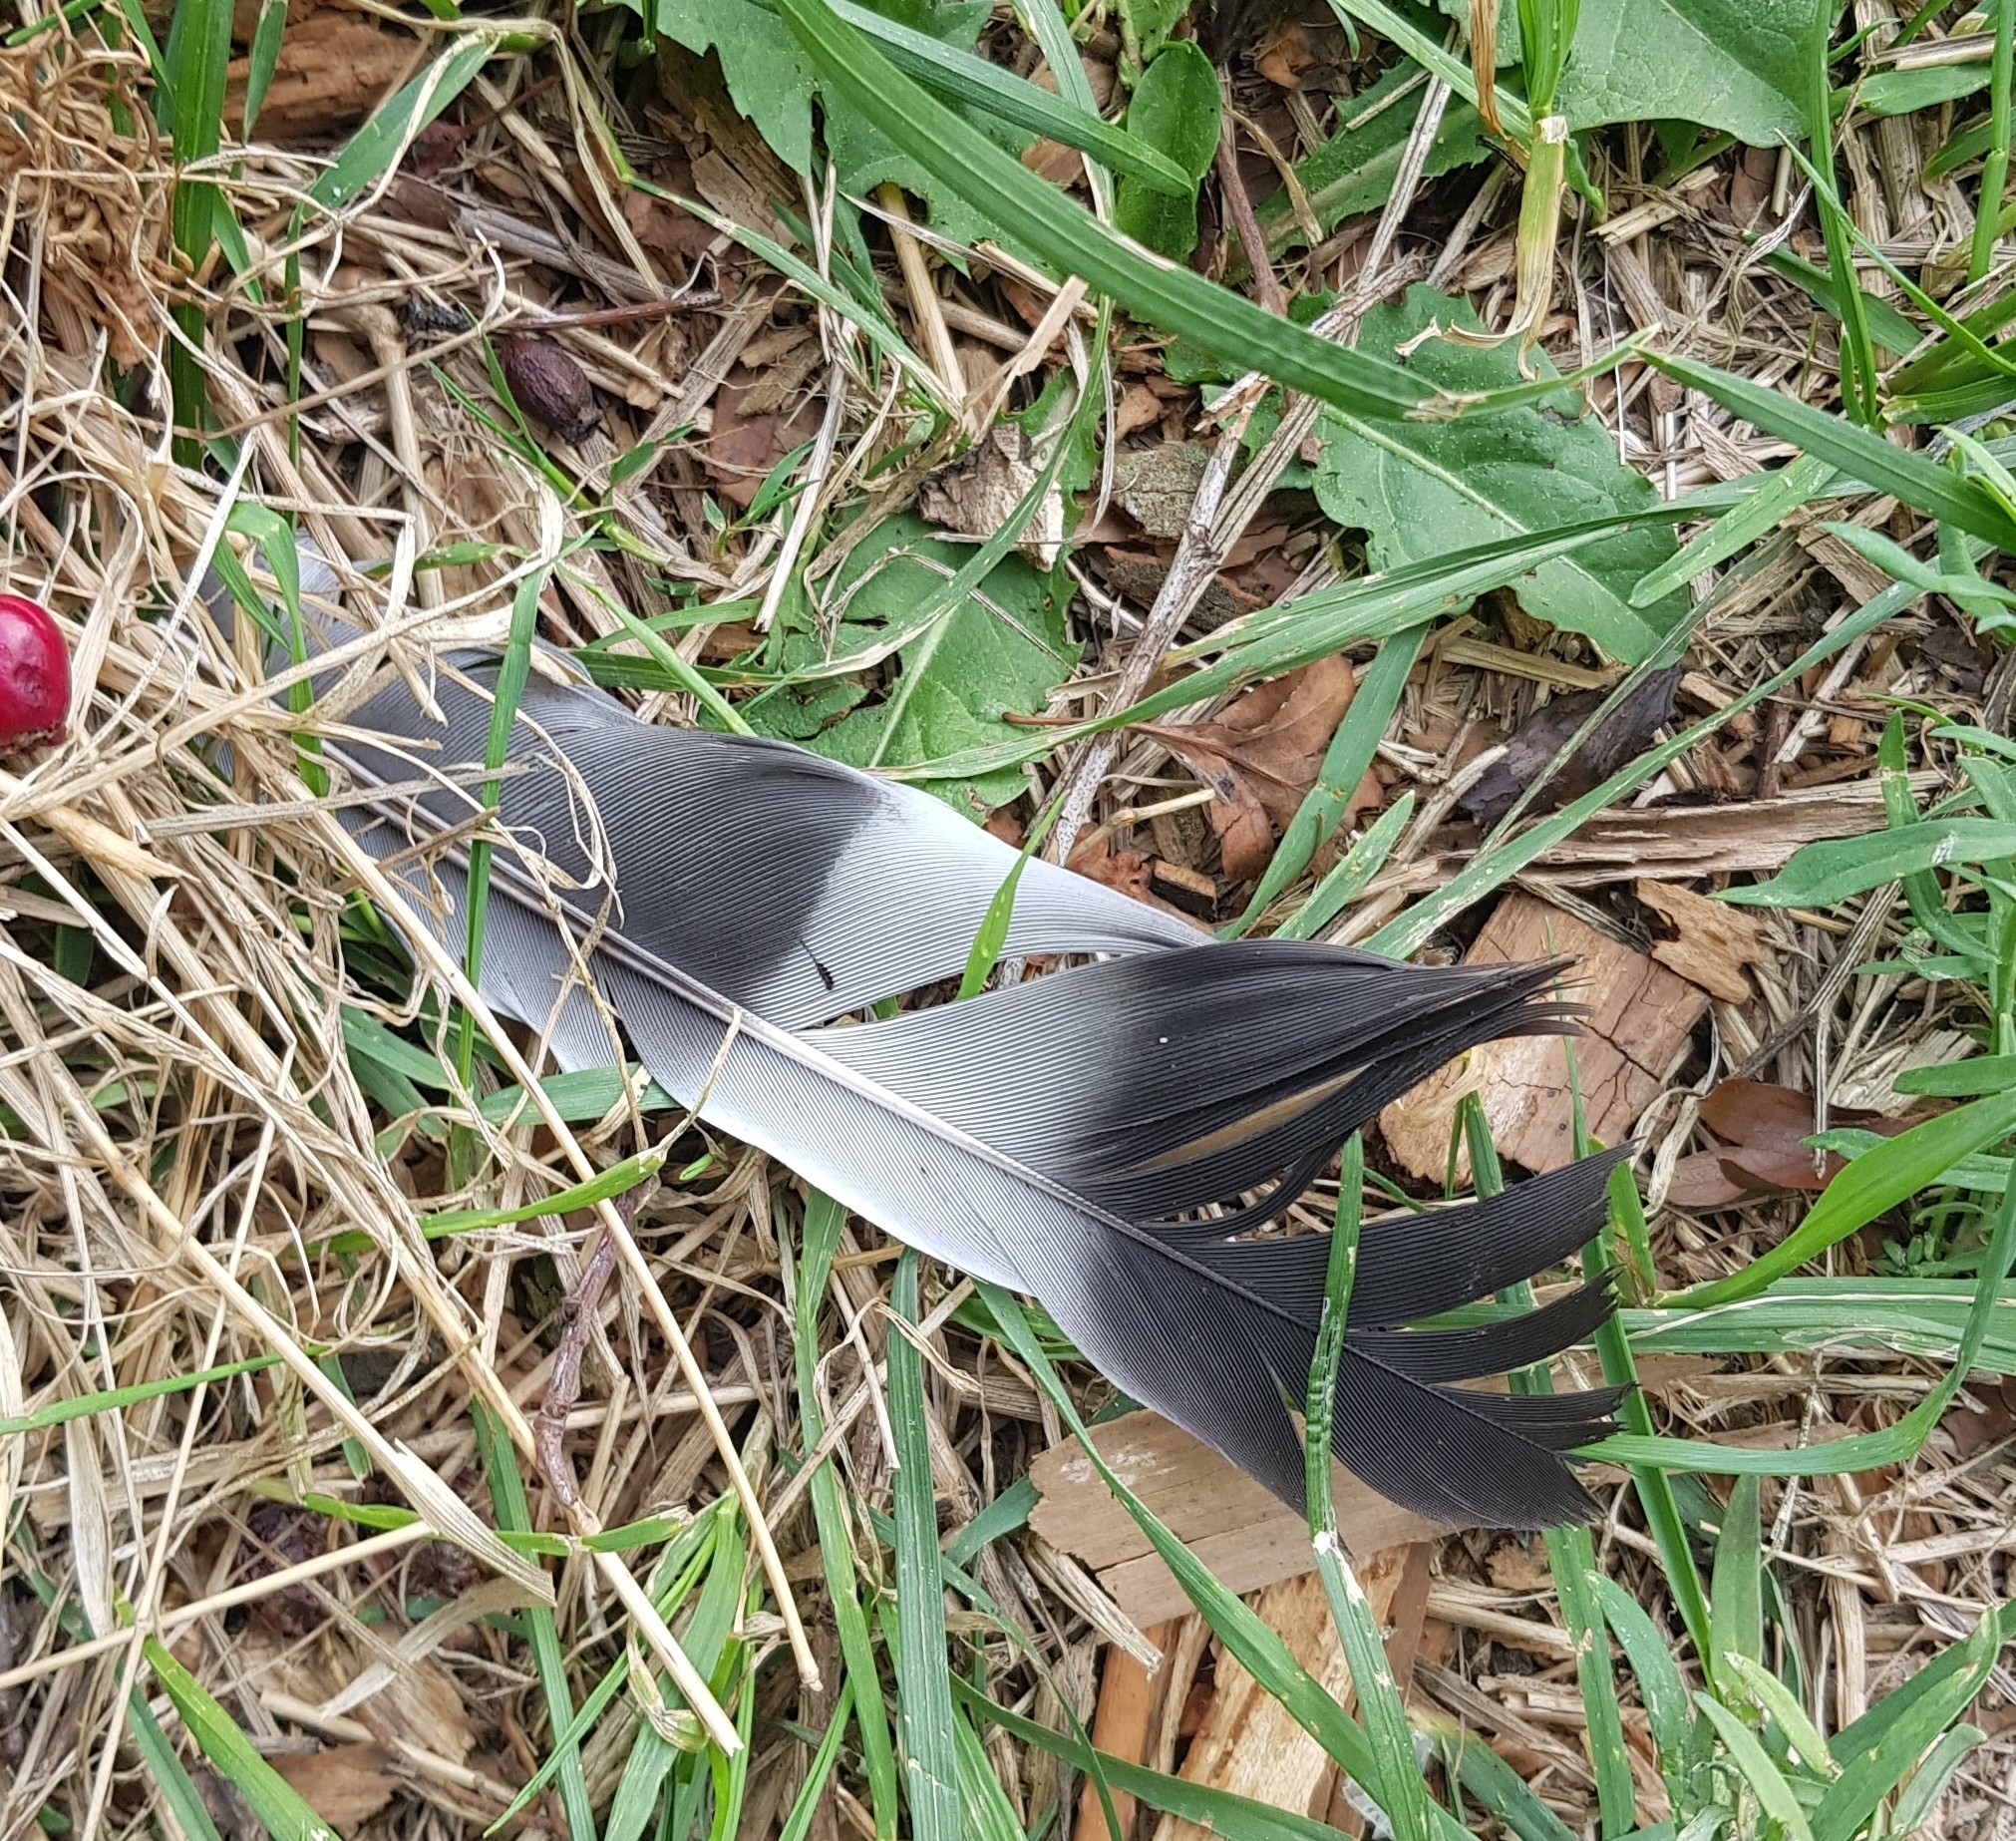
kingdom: Animalia
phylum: Chordata
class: Aves
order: Columbiformes
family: Columbidae
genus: Columba
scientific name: Columba palumbus
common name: Common wood pigeon
